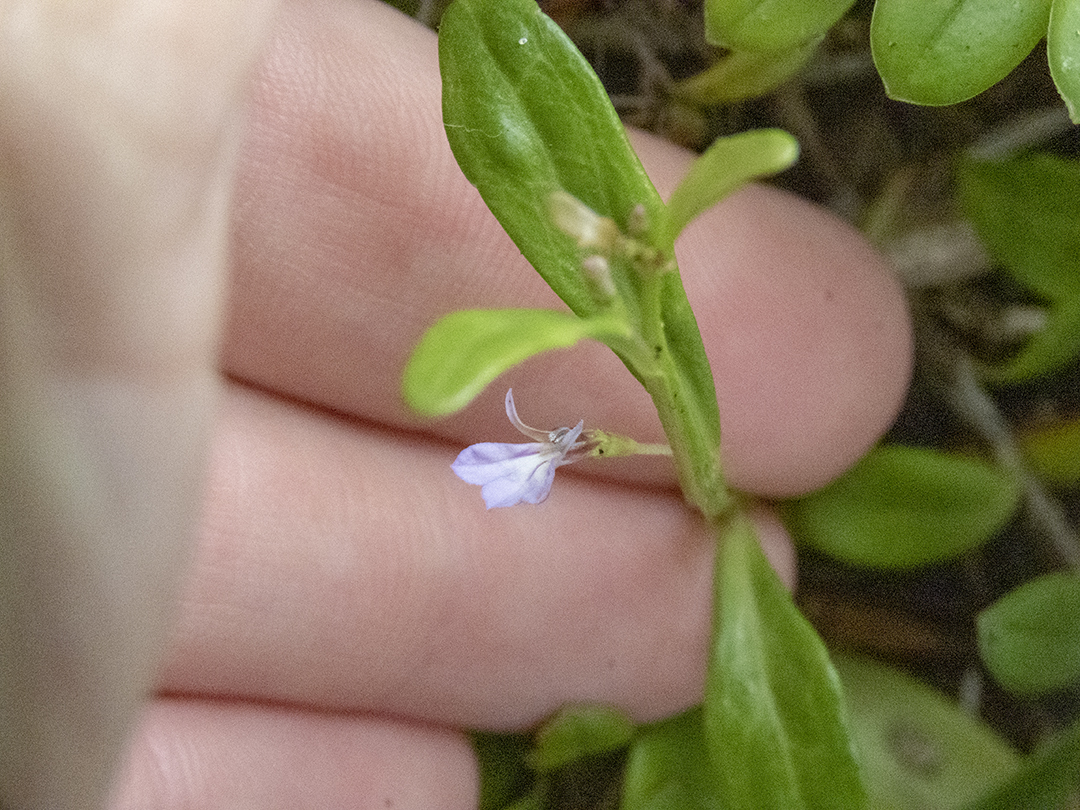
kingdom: Plantae
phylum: Tracheophyta
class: Magnoliopsida
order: Asterales
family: Campanulaceae
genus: Lobelia
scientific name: Lobelia anceps
